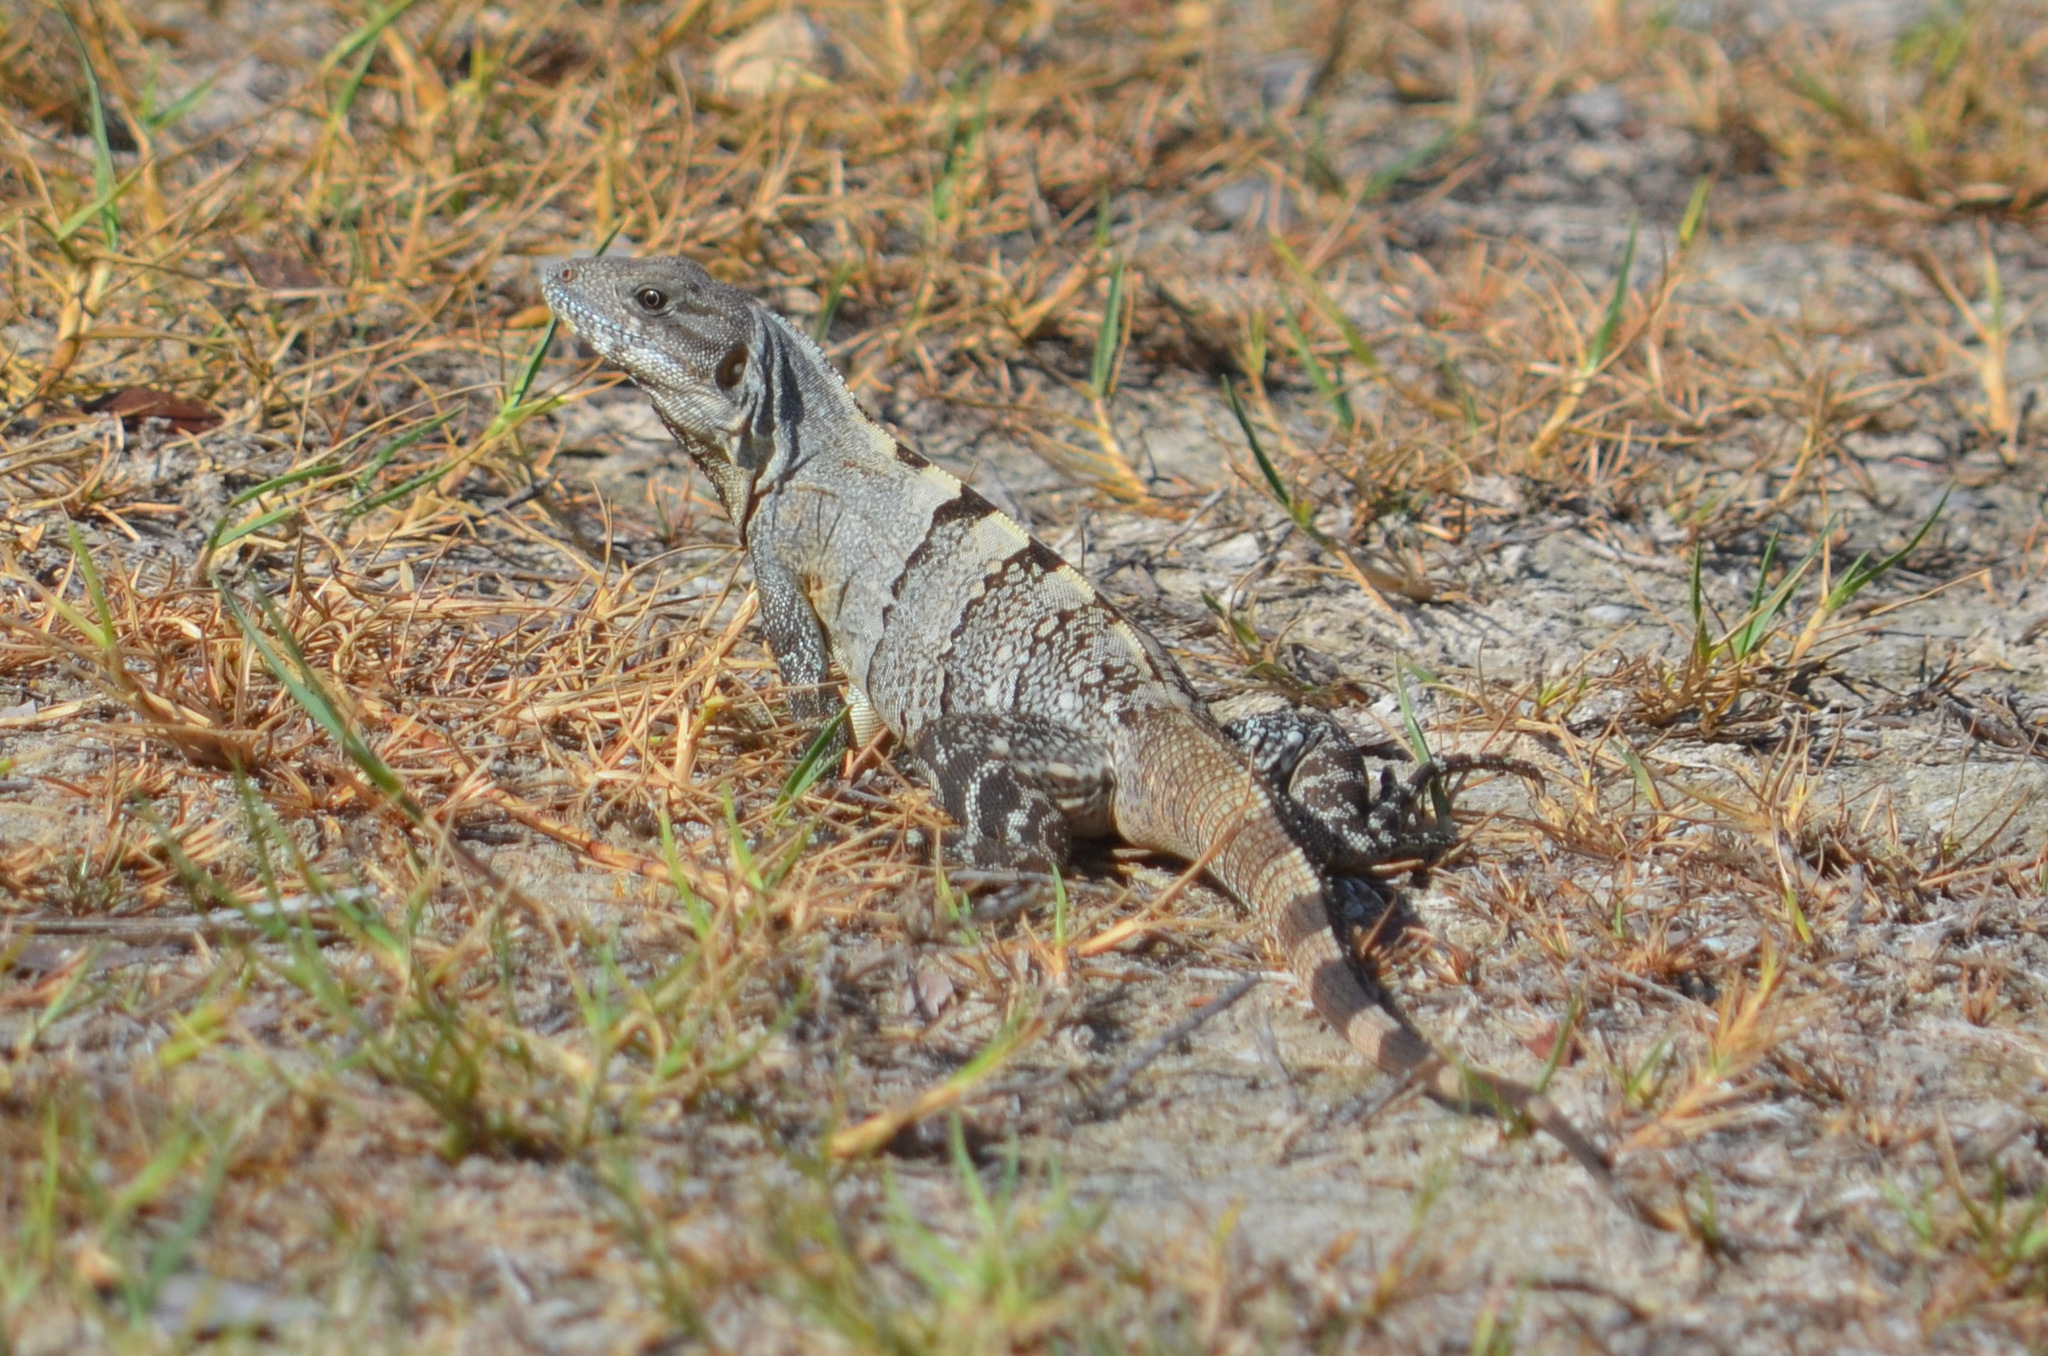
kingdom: Animalia
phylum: Chordata
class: Squamata
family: Iguanidae
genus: Ctenosaura
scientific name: Ctenosaura similis
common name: Black spiny-tailed iguana
